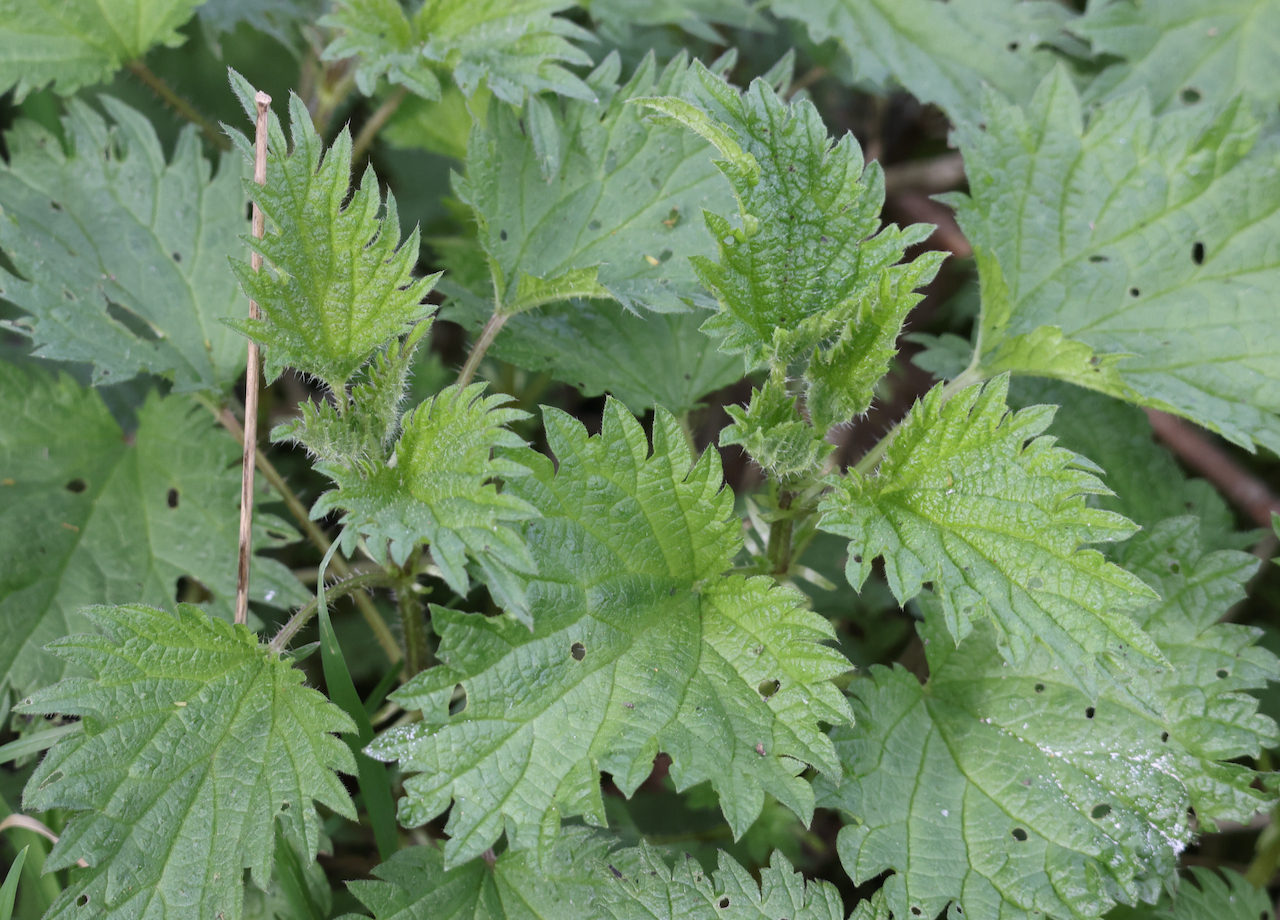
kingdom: Plantae
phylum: Tracheophyta
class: Magnoliopsida
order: Rosales
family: Urticaceae
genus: Urtica
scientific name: Urtica dioica
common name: Common nettle
